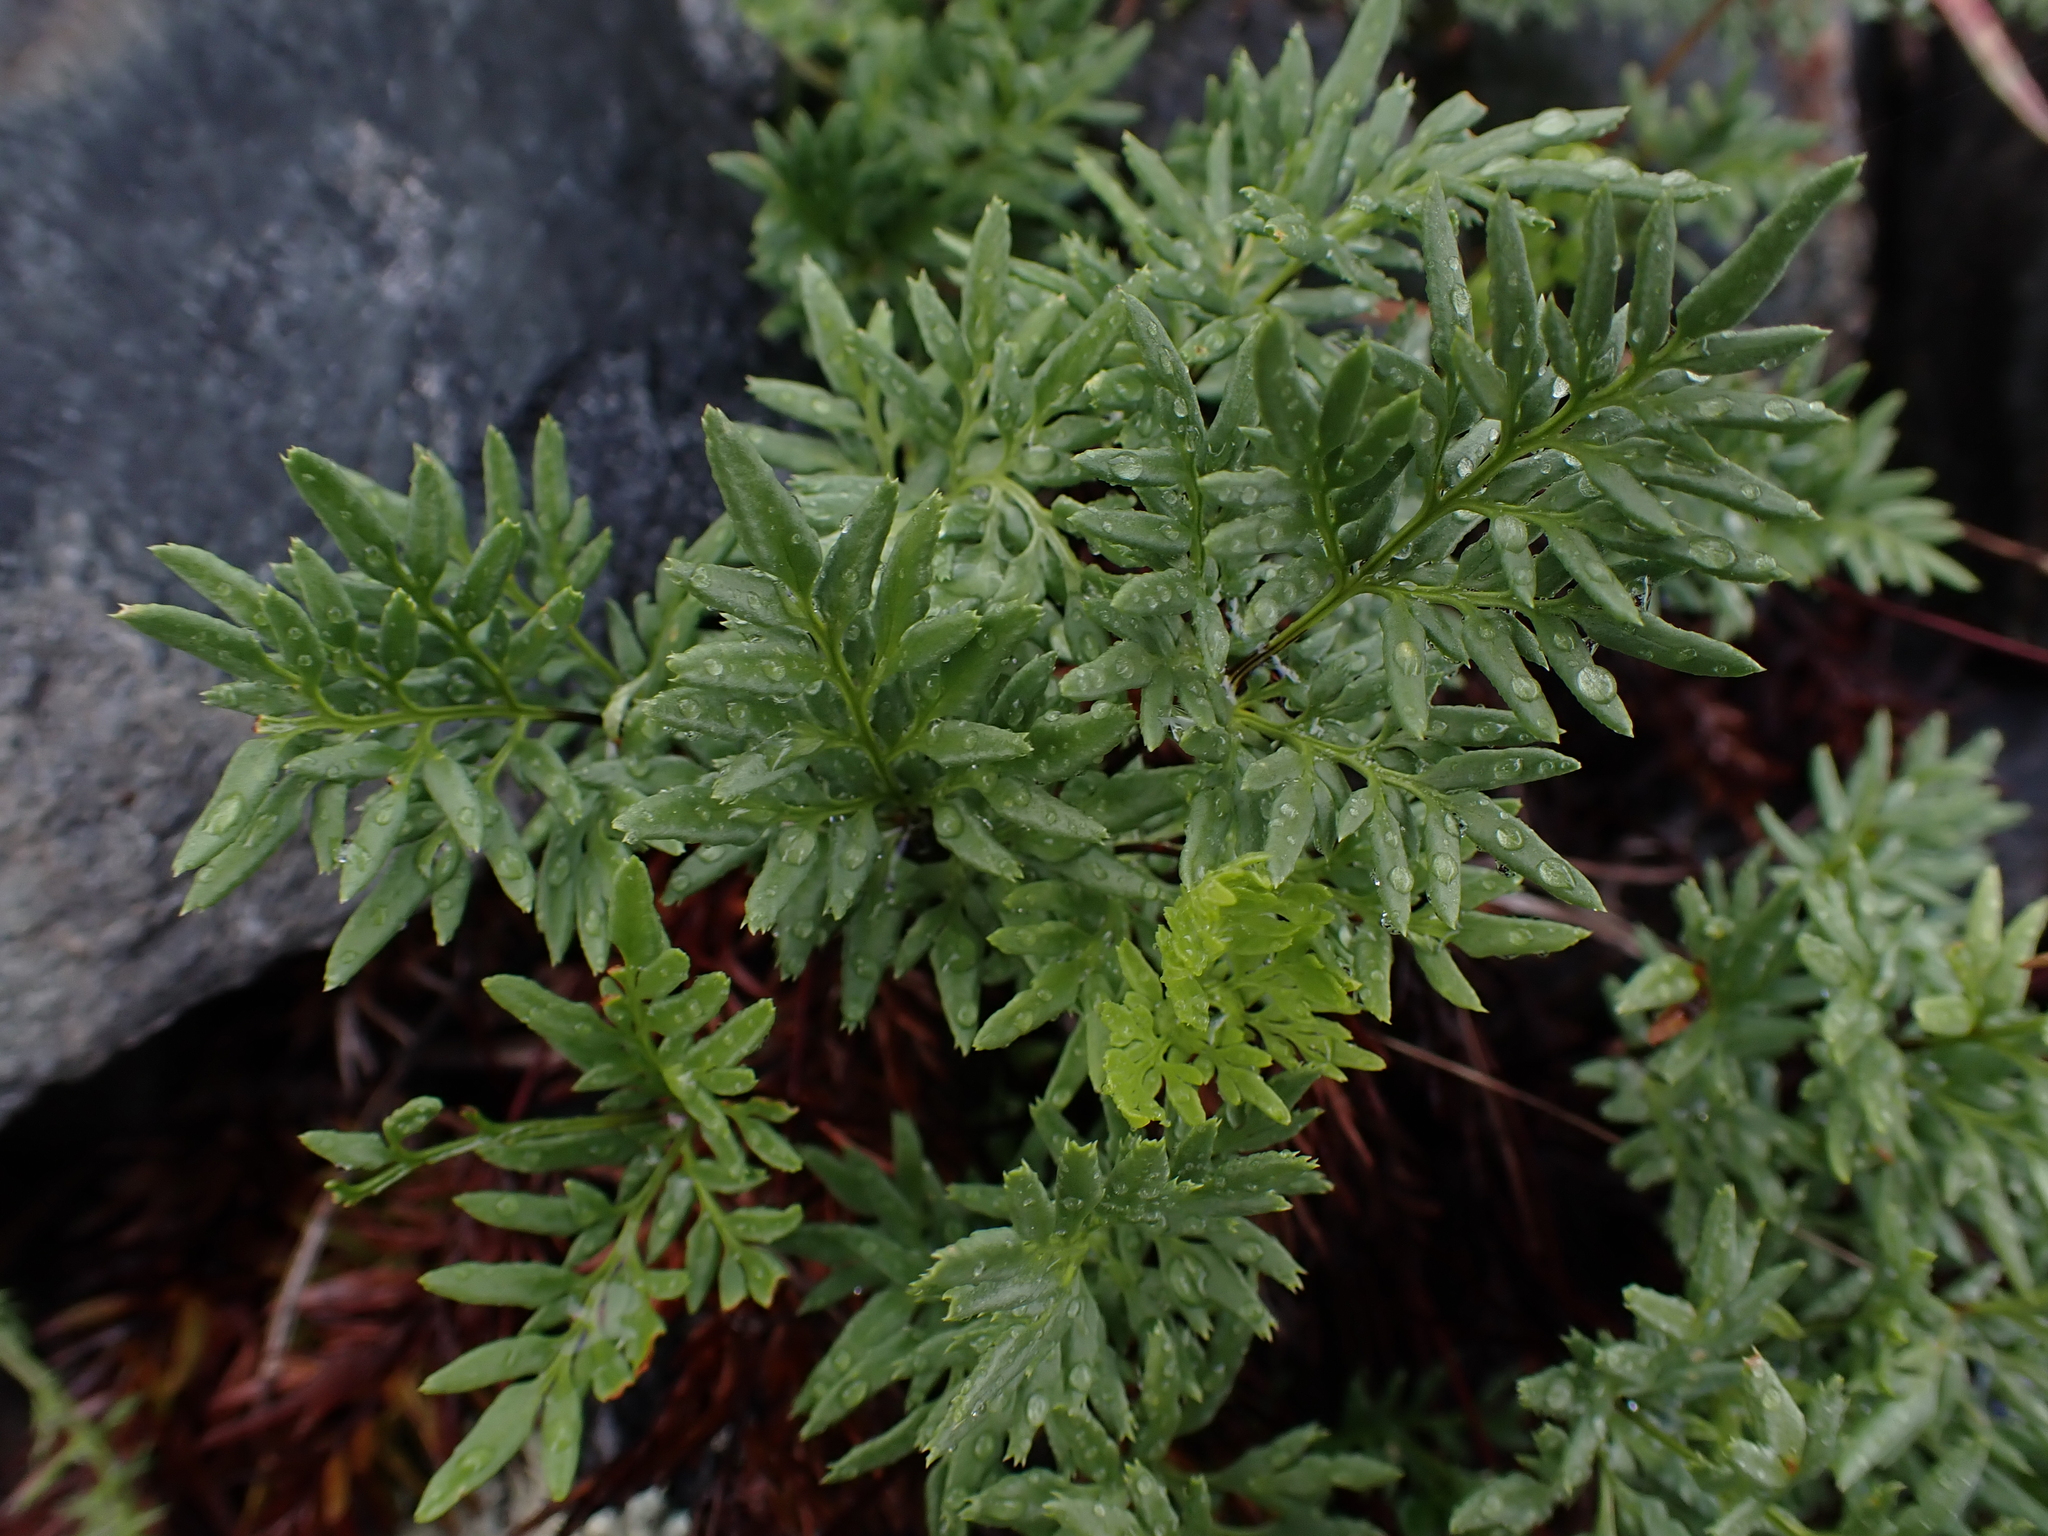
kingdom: Plantae
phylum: Tracheophyta
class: Polypodiopsida
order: Polypodiales
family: Pteridaceae
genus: Aspidotis
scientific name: Aspidotis densa
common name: Indian's dream
